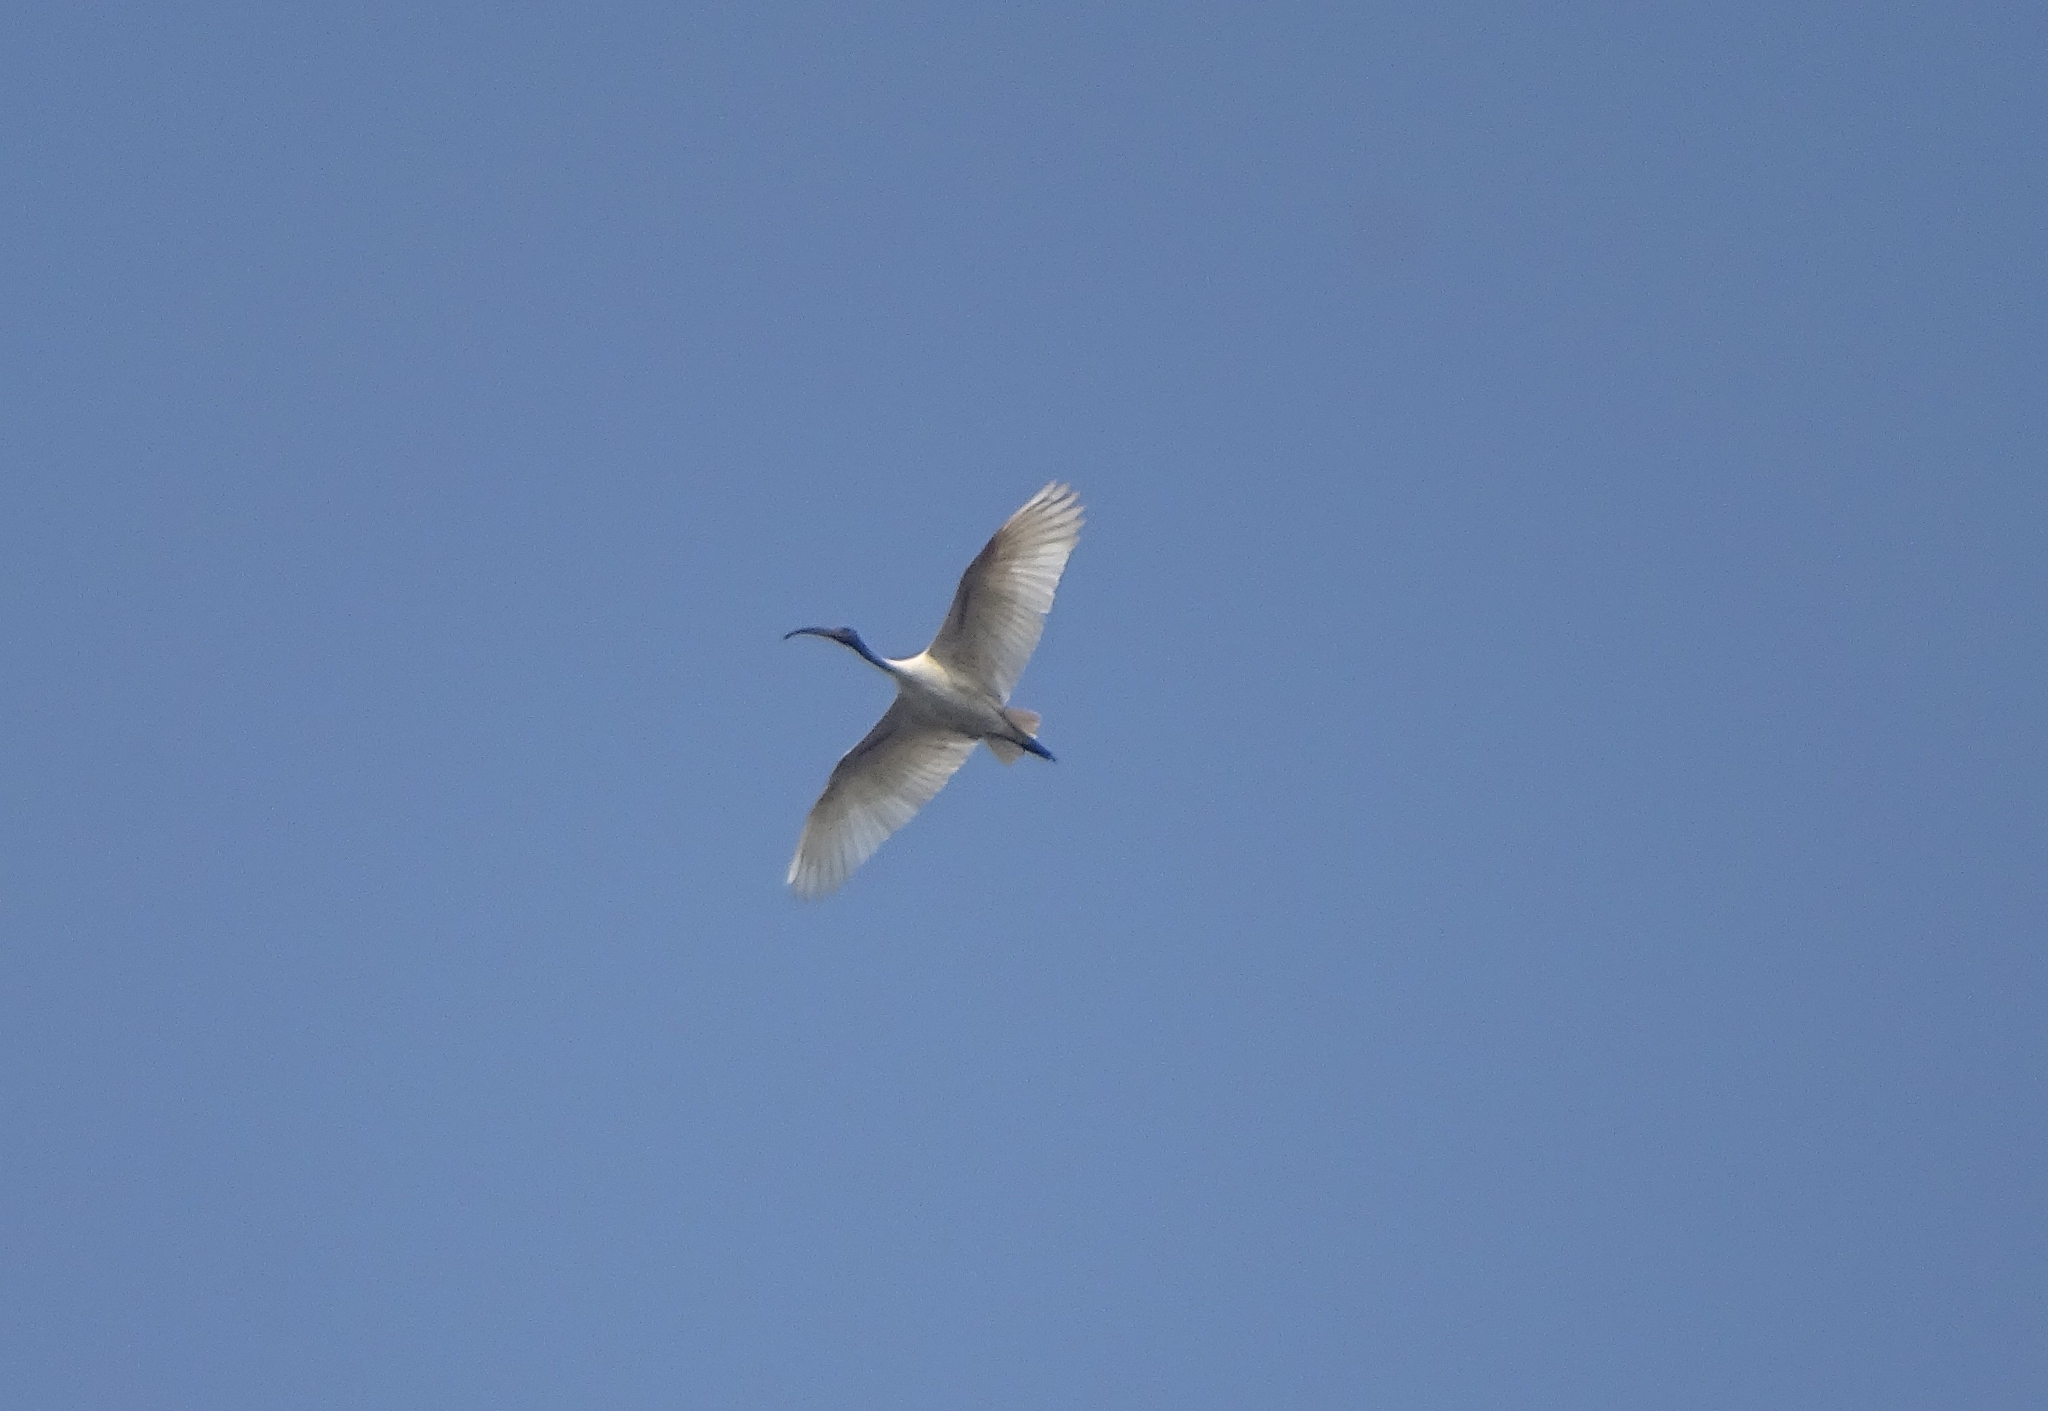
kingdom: Animalia
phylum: Chordata
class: Aves
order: Pelecaniformes
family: Threskiornithidae
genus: Threskiornis
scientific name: Threskiornis melanocephalus
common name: Black-headed ibis
